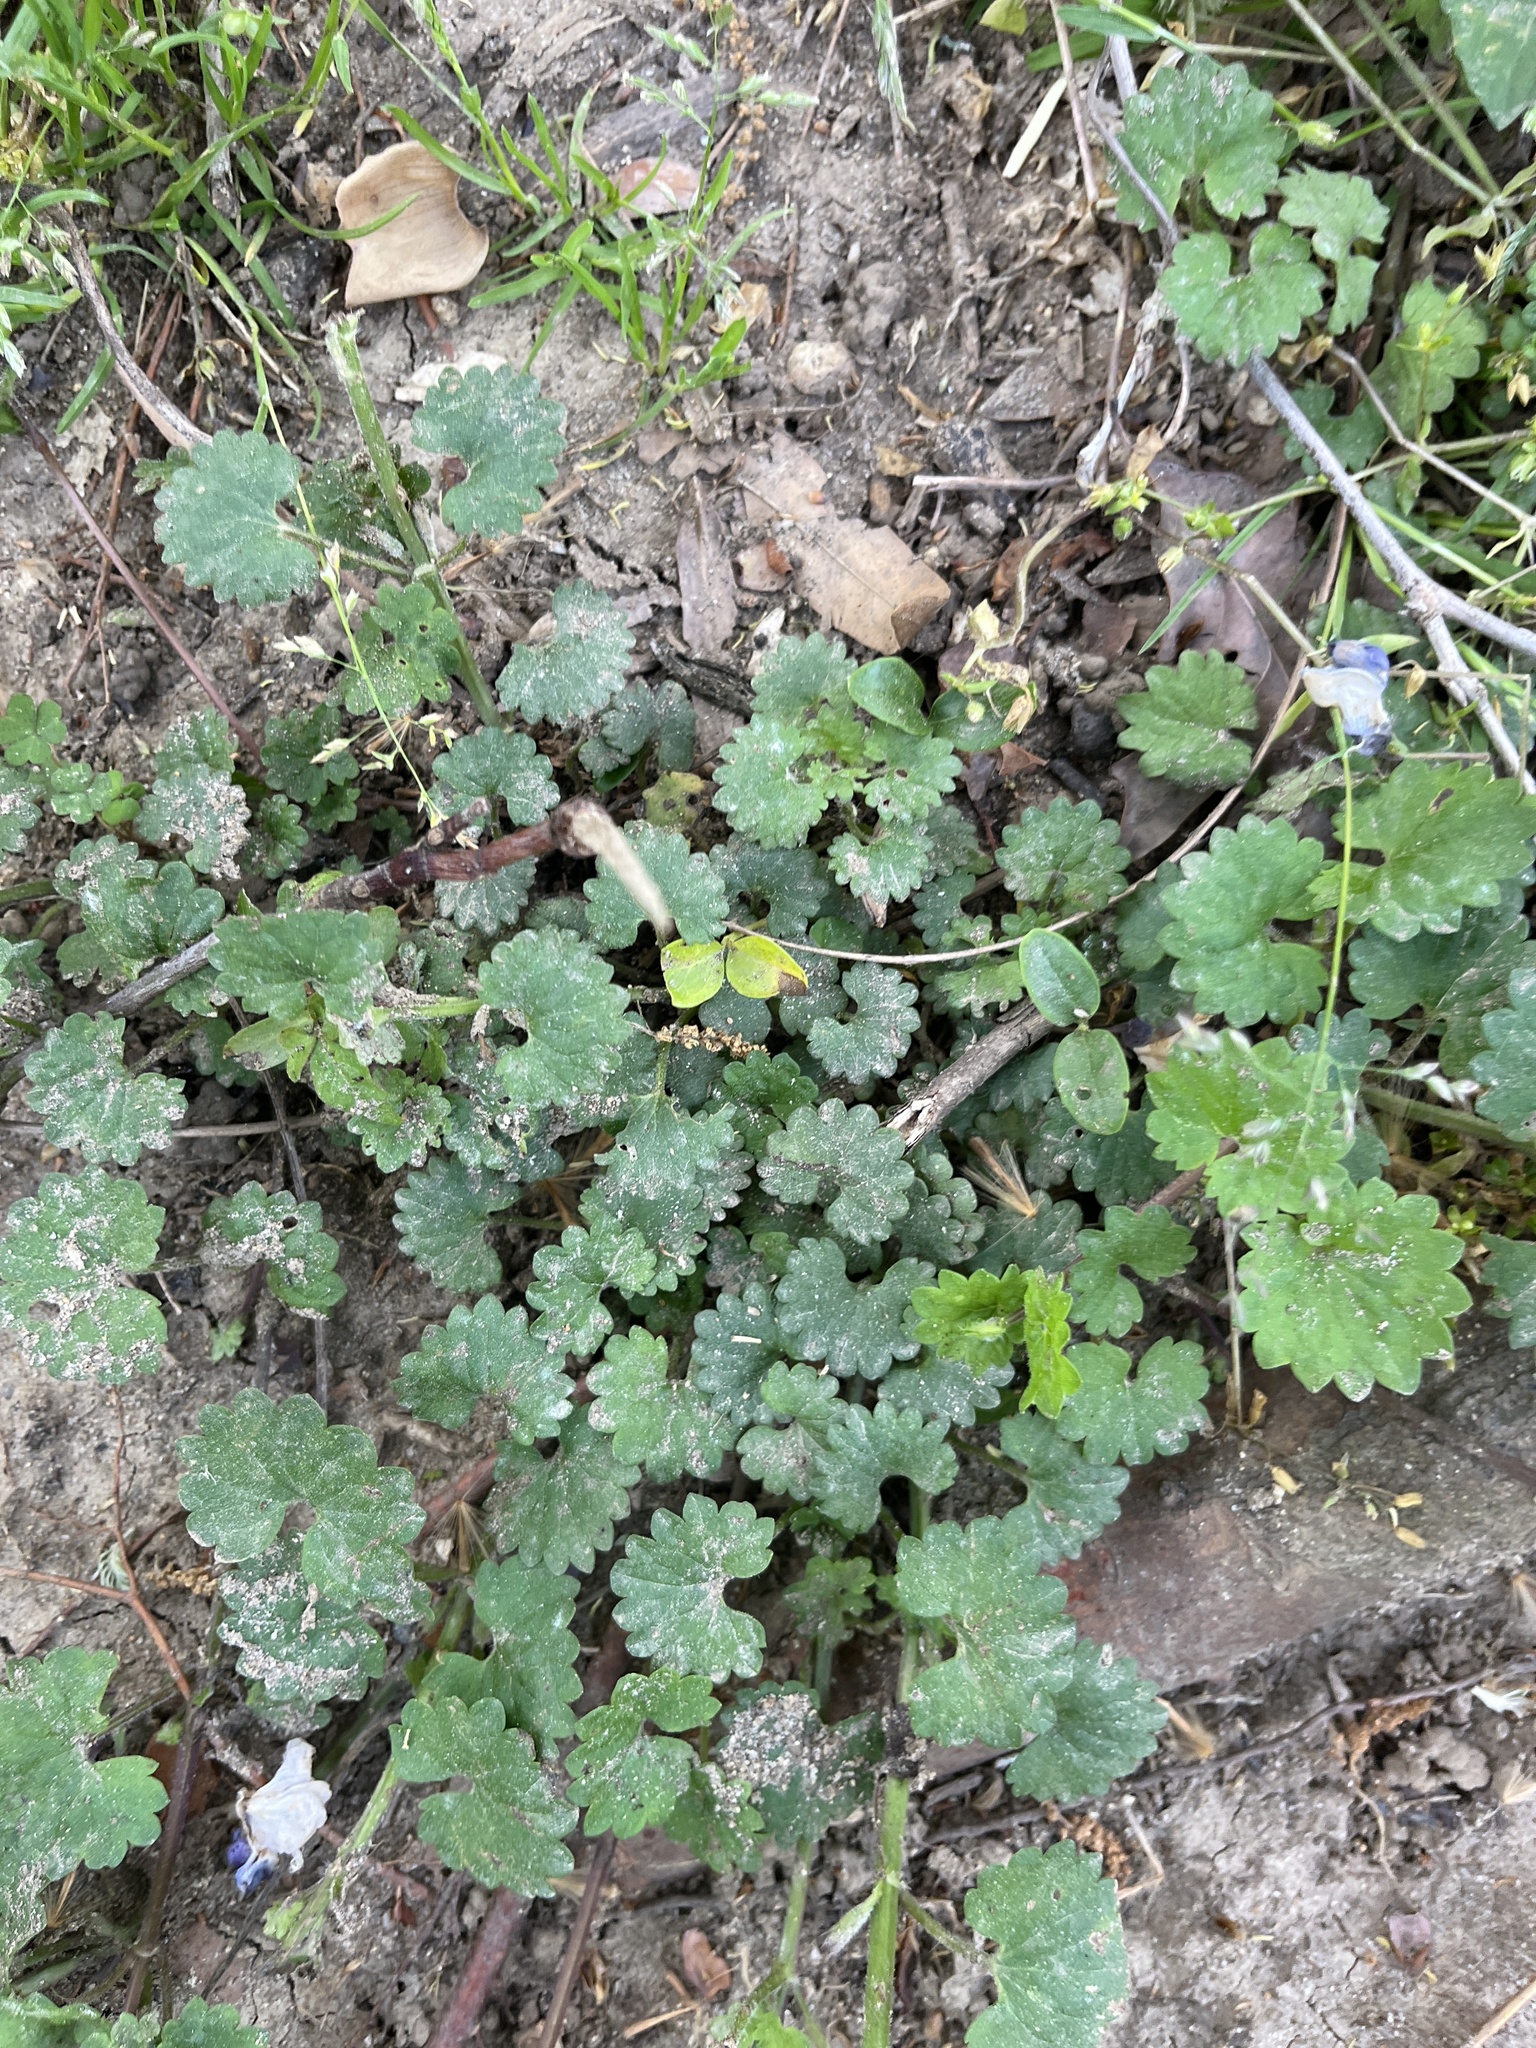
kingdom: Plantae
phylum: Tracheophyta
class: Magnoliopsida
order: Lamiales
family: Lamiaceae
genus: Glechoma
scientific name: Glechoma hederacea
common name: Ground ivy
